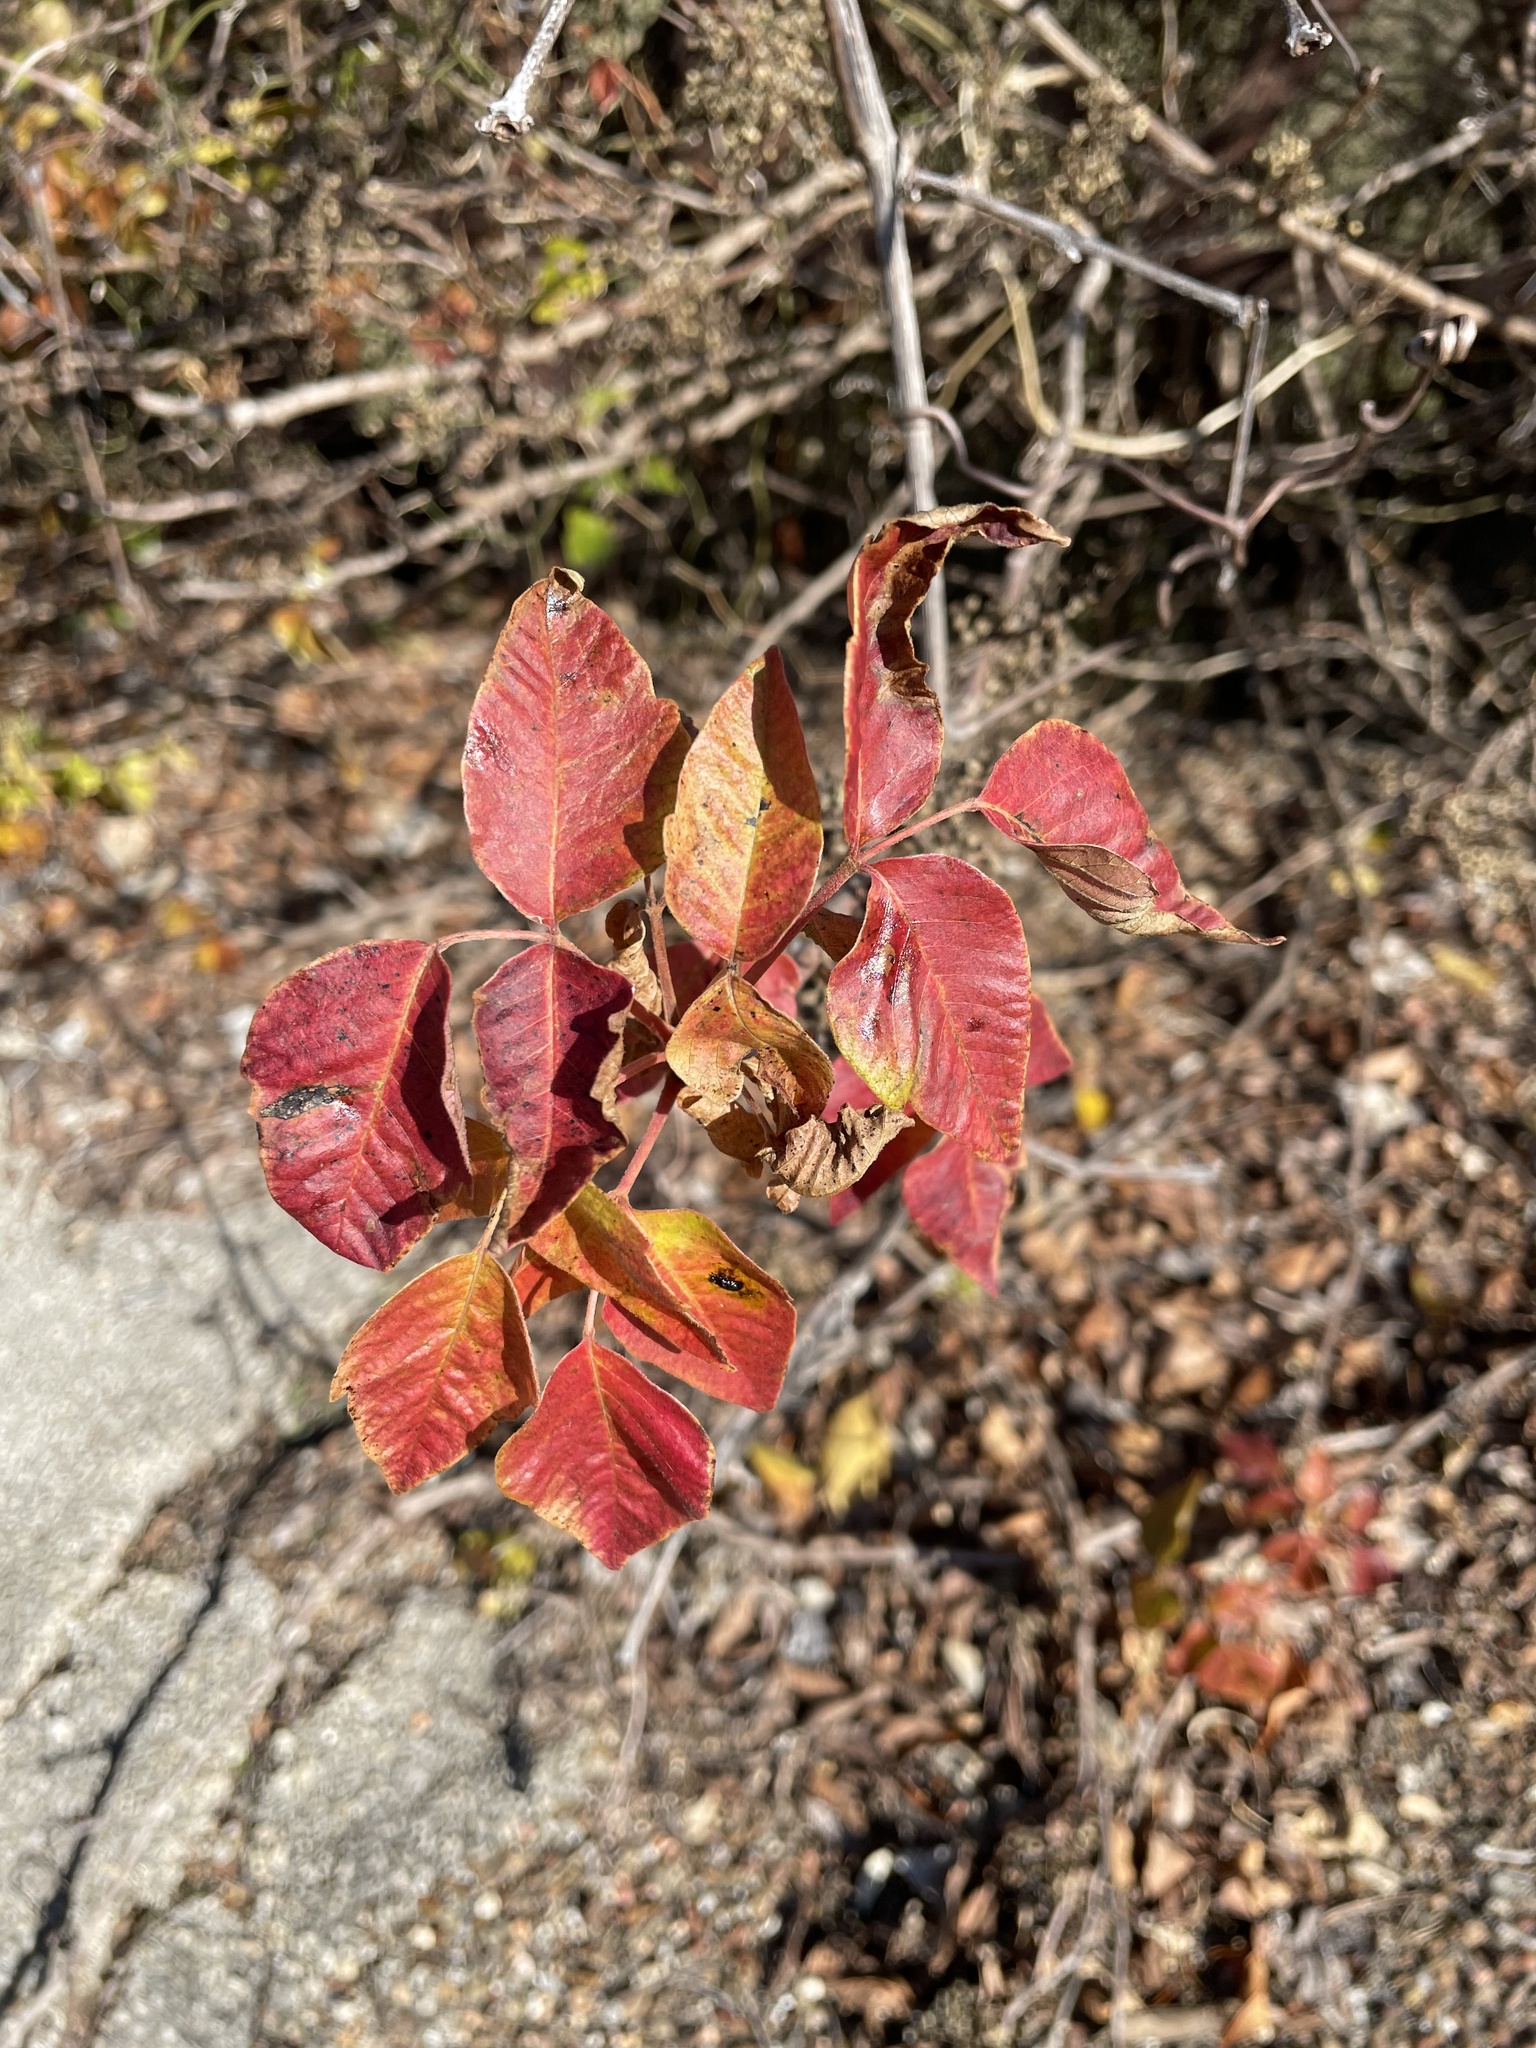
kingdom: Plantae
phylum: Tracheophyta
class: Magnoliopsida
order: Sapindales
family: Anacardiaceae
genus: Toxicodendron
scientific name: Toxicodendron radicans
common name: Poison ivy
